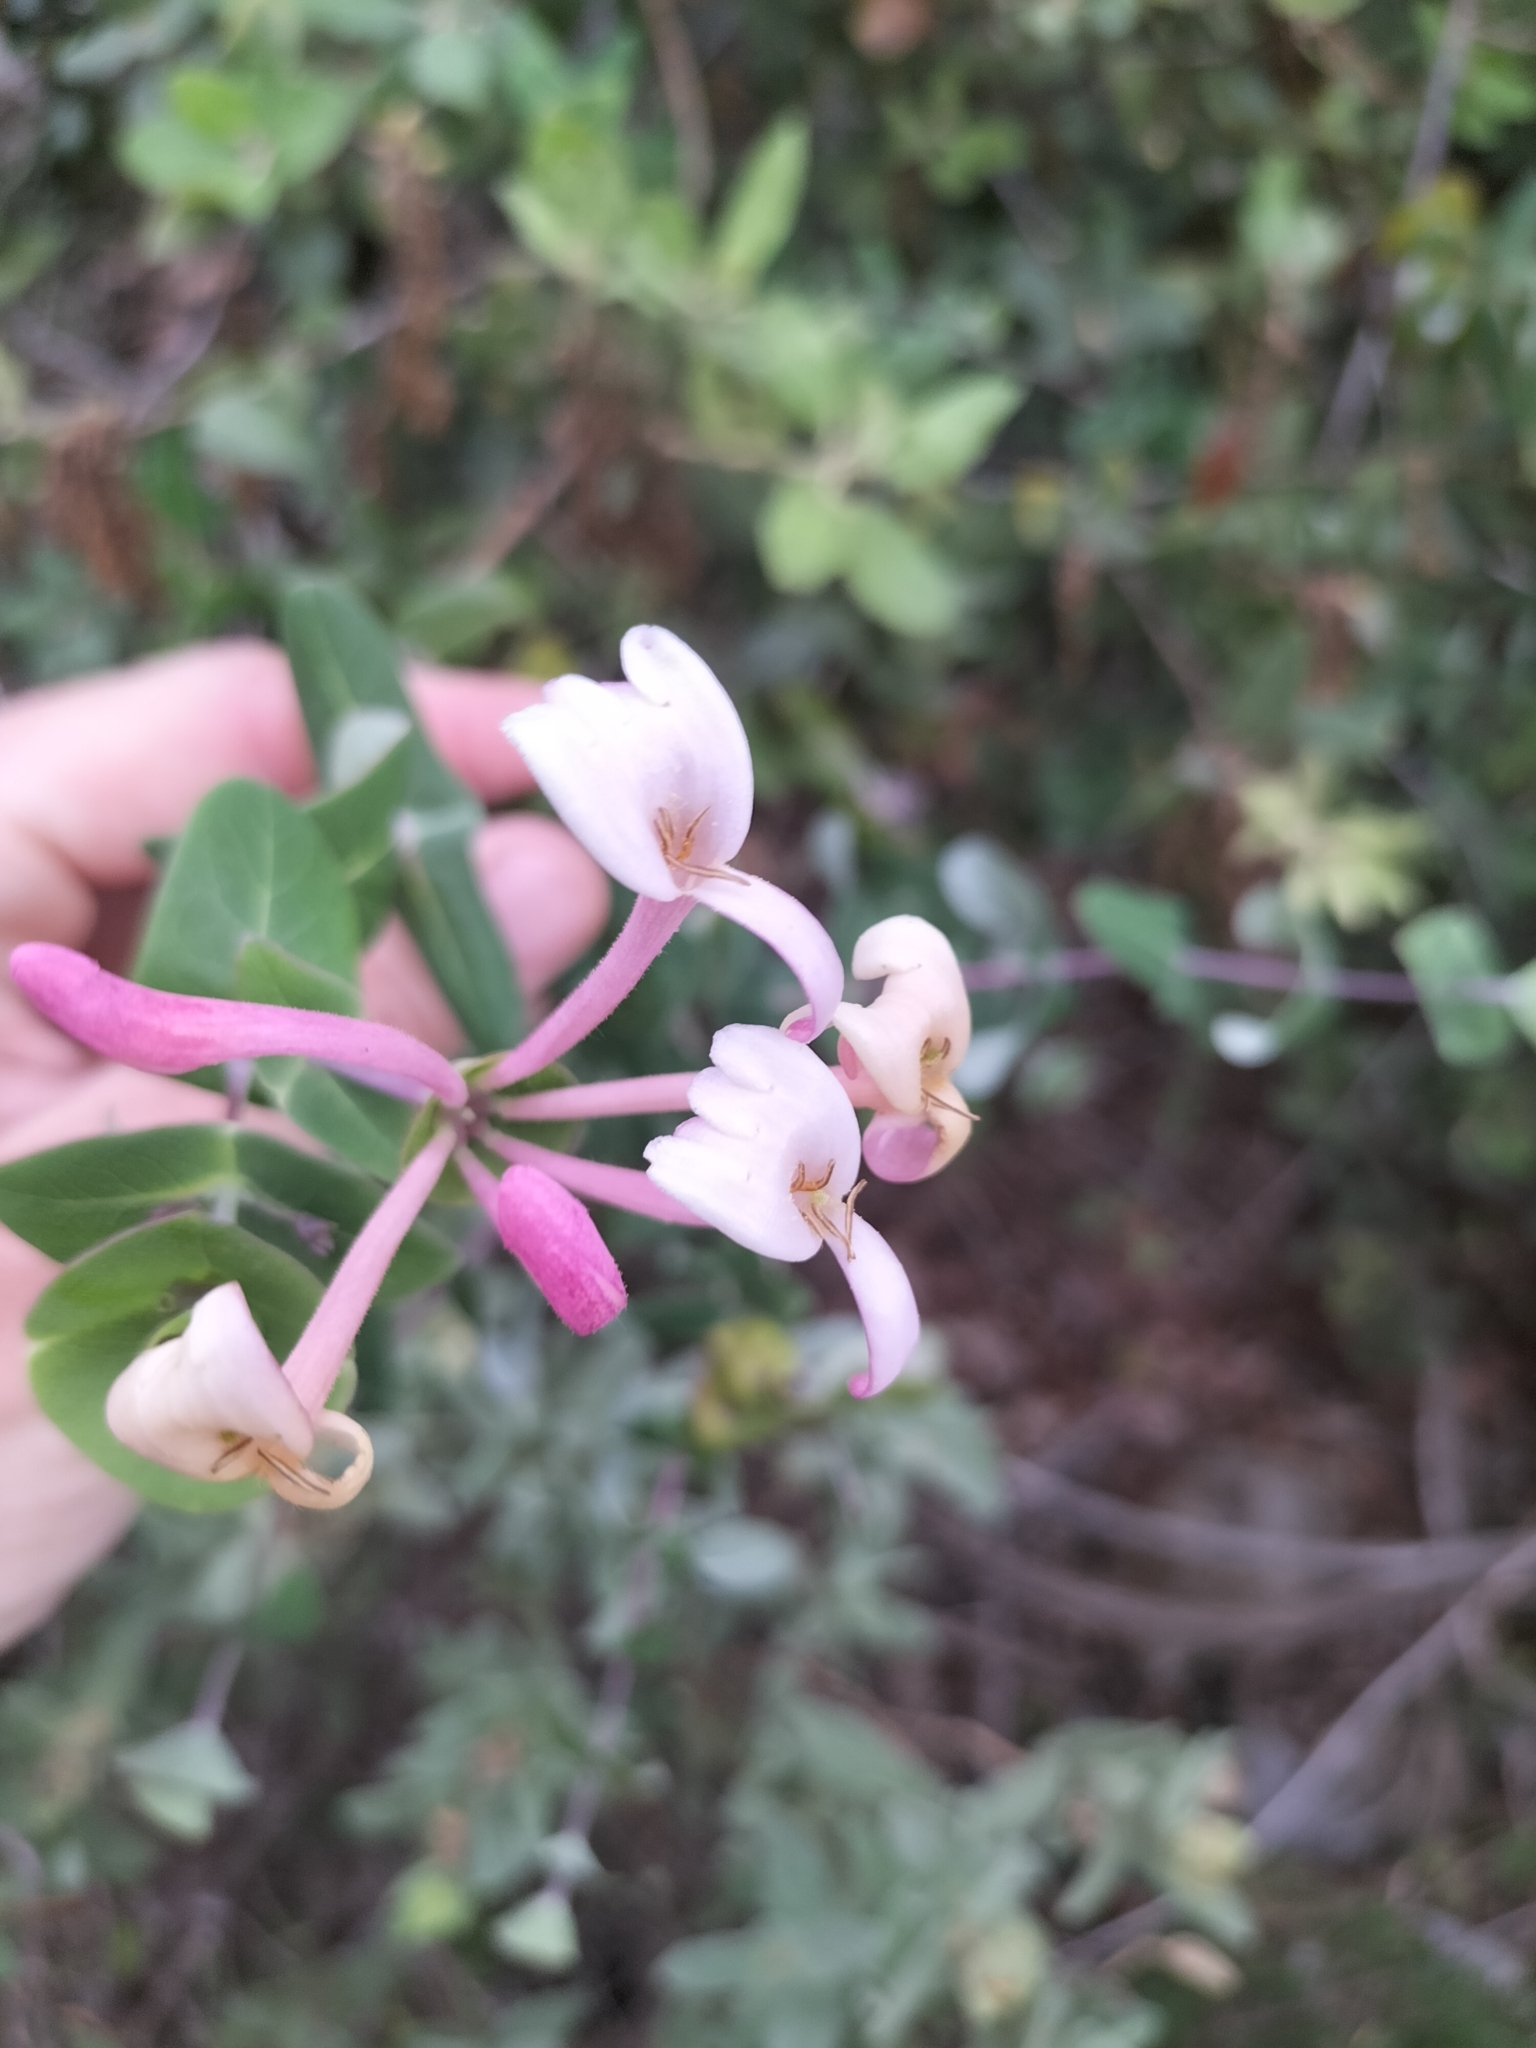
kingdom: Plantae
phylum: Tracheophyta
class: Magnoliopsida
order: Dipsacales
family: Caprifoliaceae
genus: Lonicera
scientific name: Lonicera implexa
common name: Minorca honeysuckle
